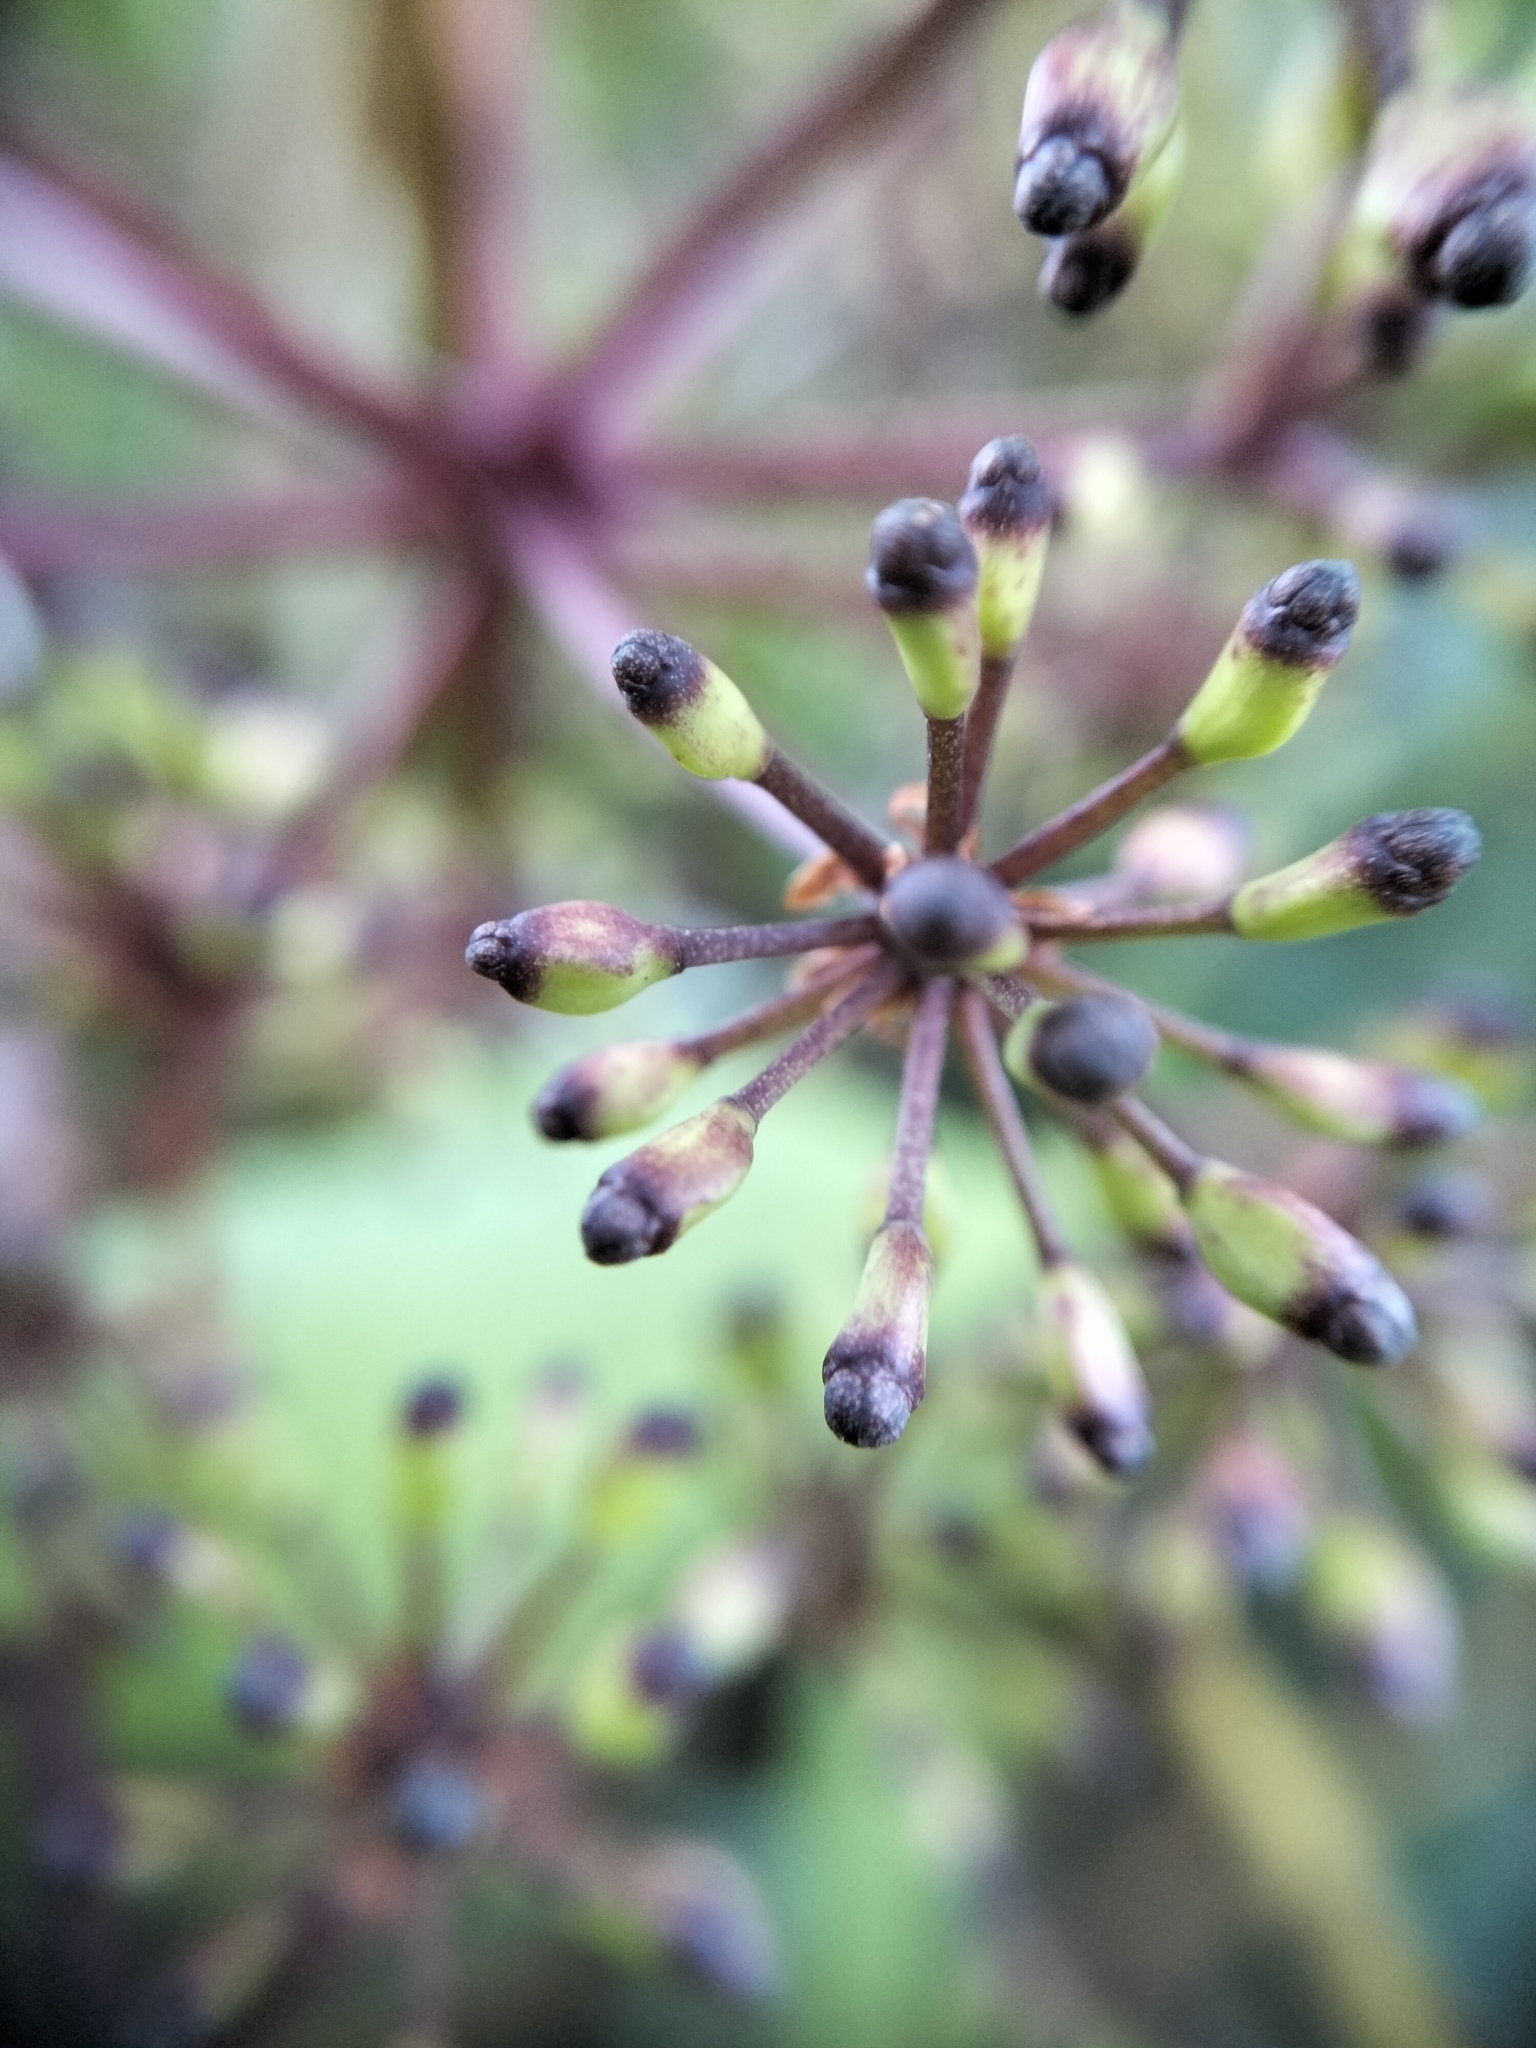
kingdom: Plantae
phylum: Tracheophyta
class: Magnoliopsida
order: Apiales
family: Araliaceae
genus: Neopanax
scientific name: Neopanax colensoi
